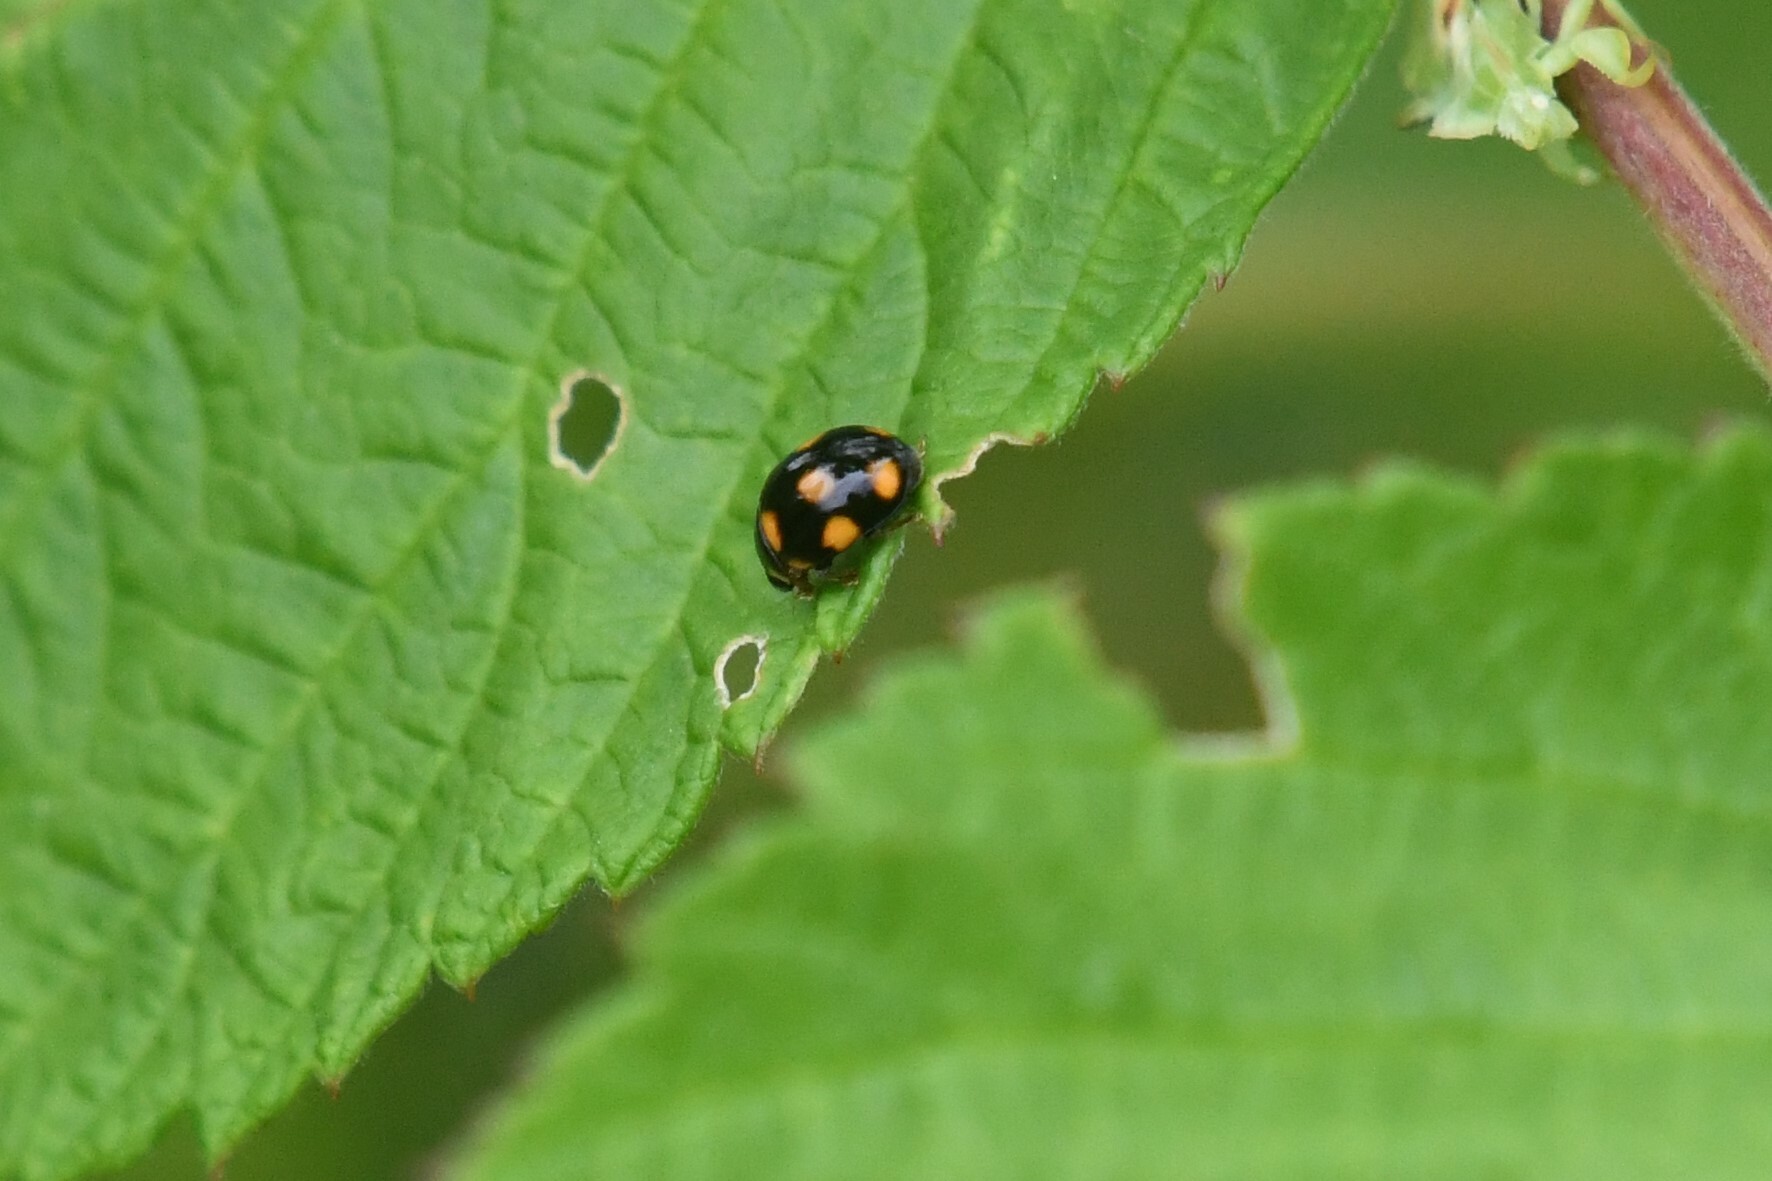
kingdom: Animalia
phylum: Arthropoda
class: Insecta
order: Coleoptera
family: Coccinellidae
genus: Brachiacantha
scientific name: Brachiacantha ursina
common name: Ursine spurleg lady beetle
